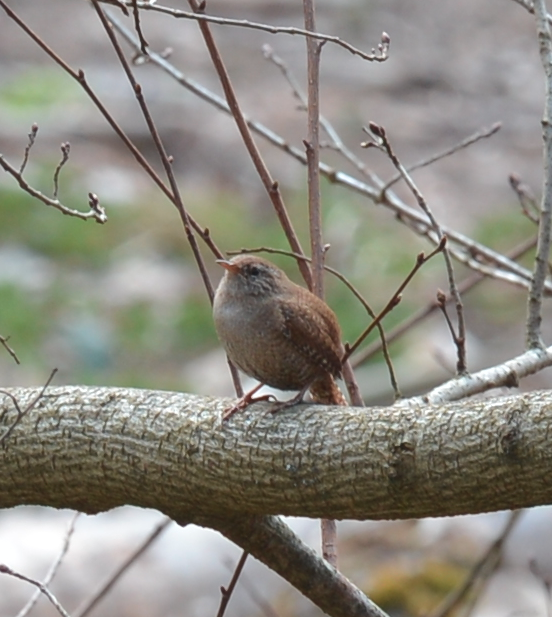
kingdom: Animalia
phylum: Chordata
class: Aves
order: Passeriformes
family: Troglodytidae
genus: Troglodytes
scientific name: Troglodytes troglodytes
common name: Eurasian wren
